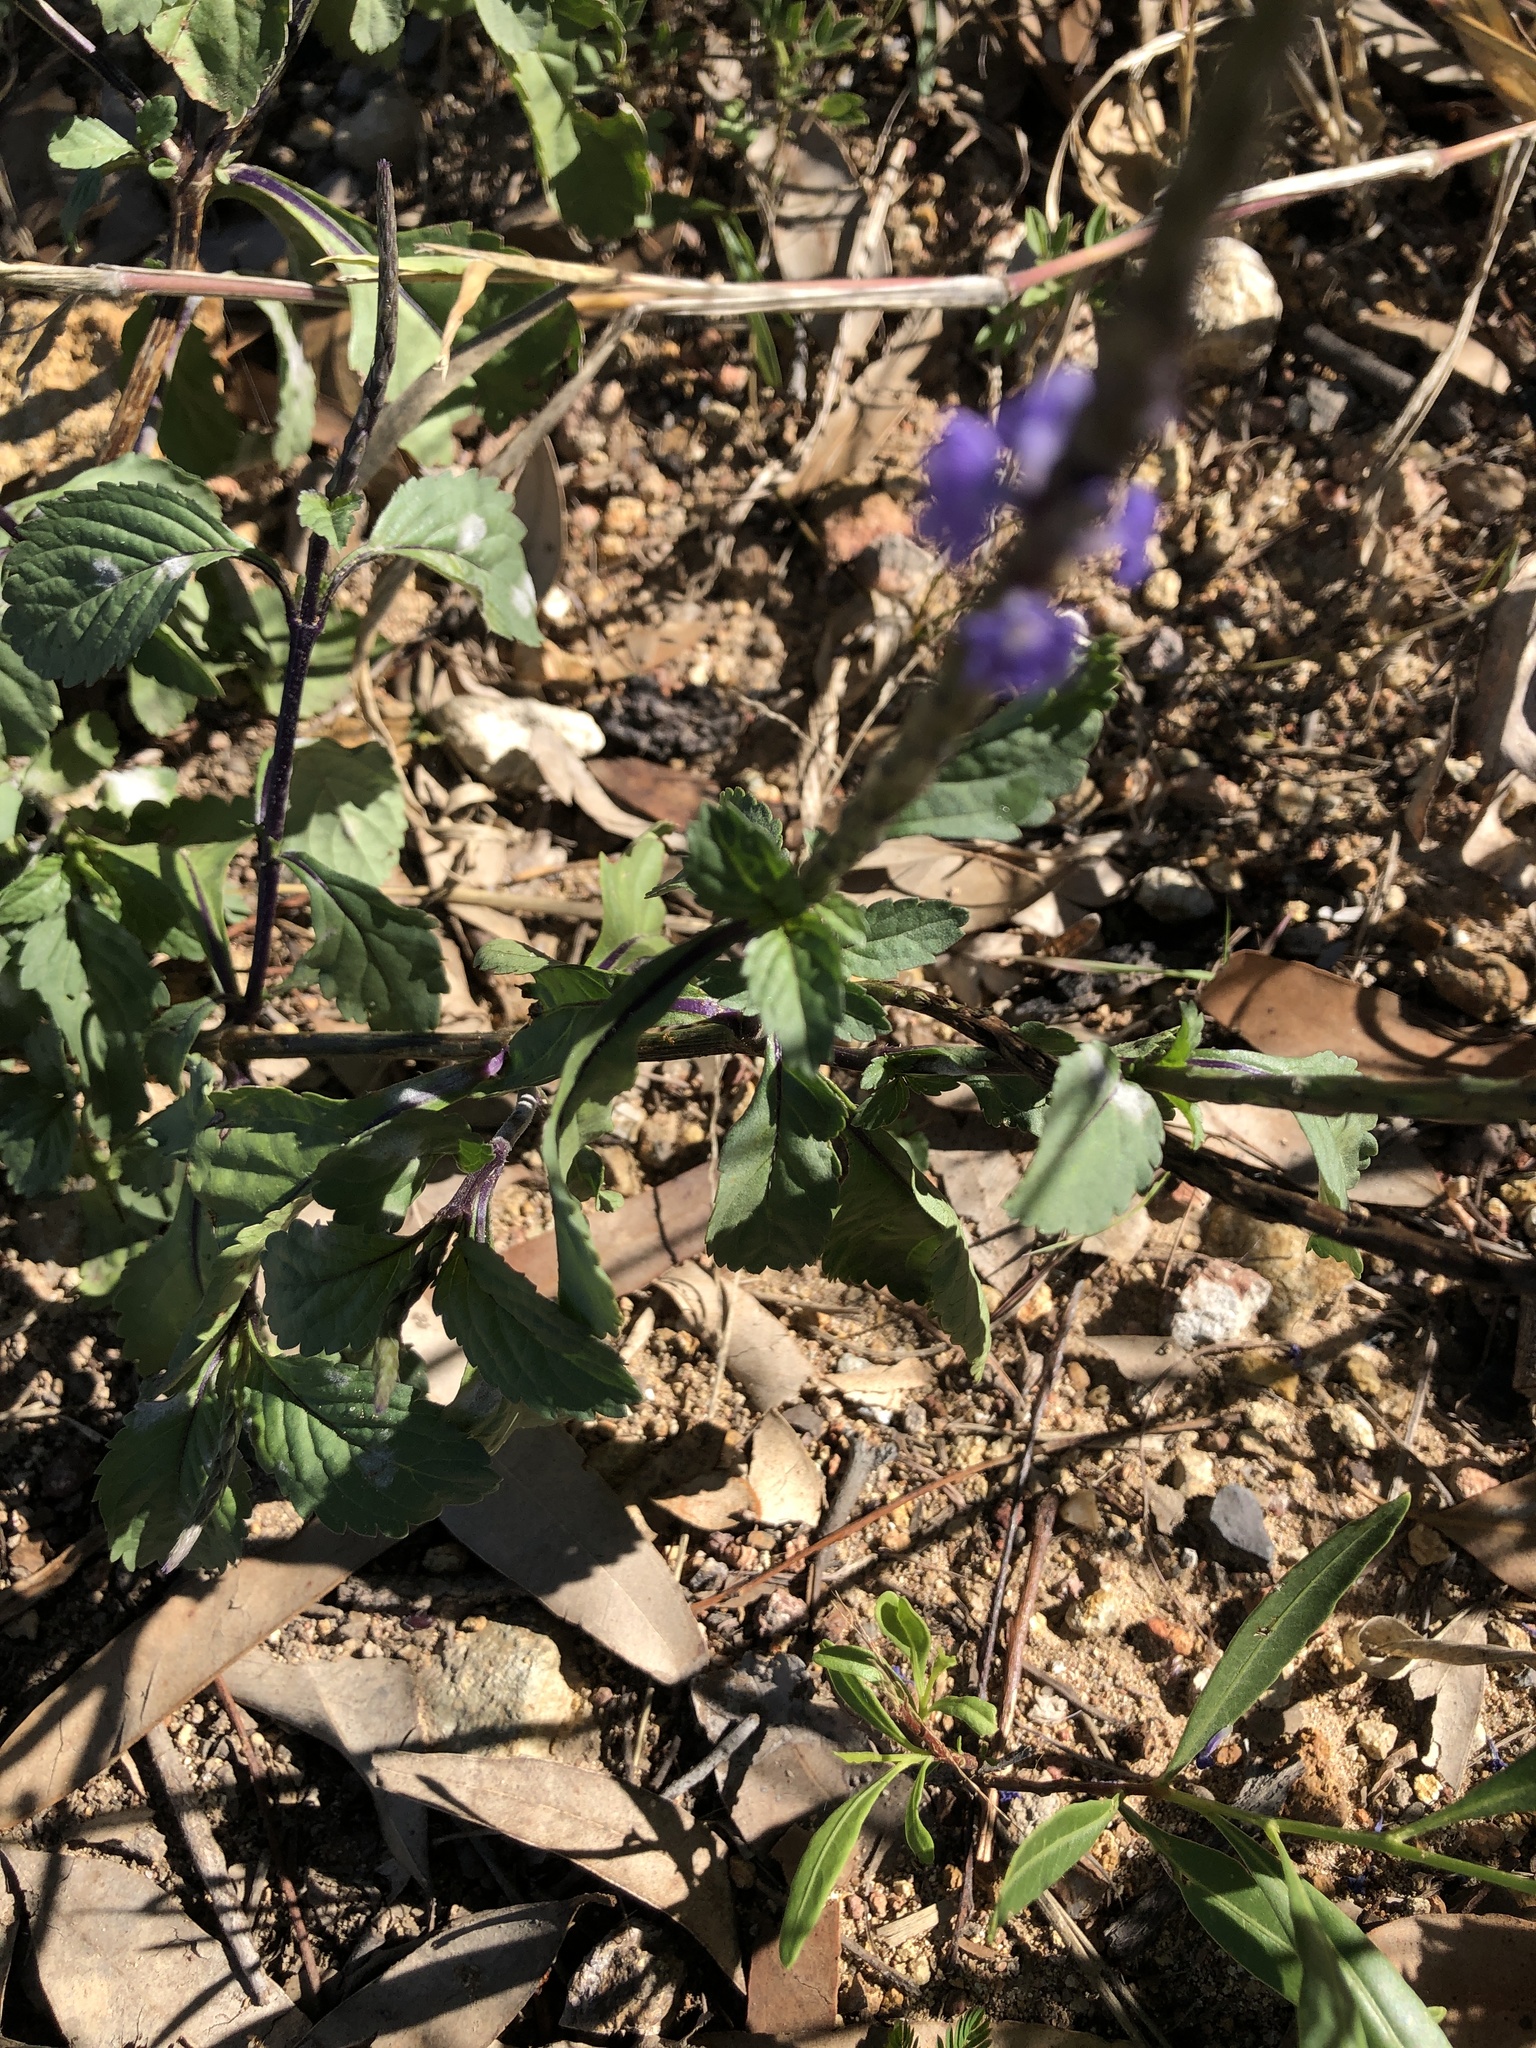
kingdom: Plantae
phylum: Tracheophyta
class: Magnoliopsida
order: Lamiales
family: Verbenaceae
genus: Stachytarpheta
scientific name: Stachytarpheta jamaicensis
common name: Light-blue snakeweed
